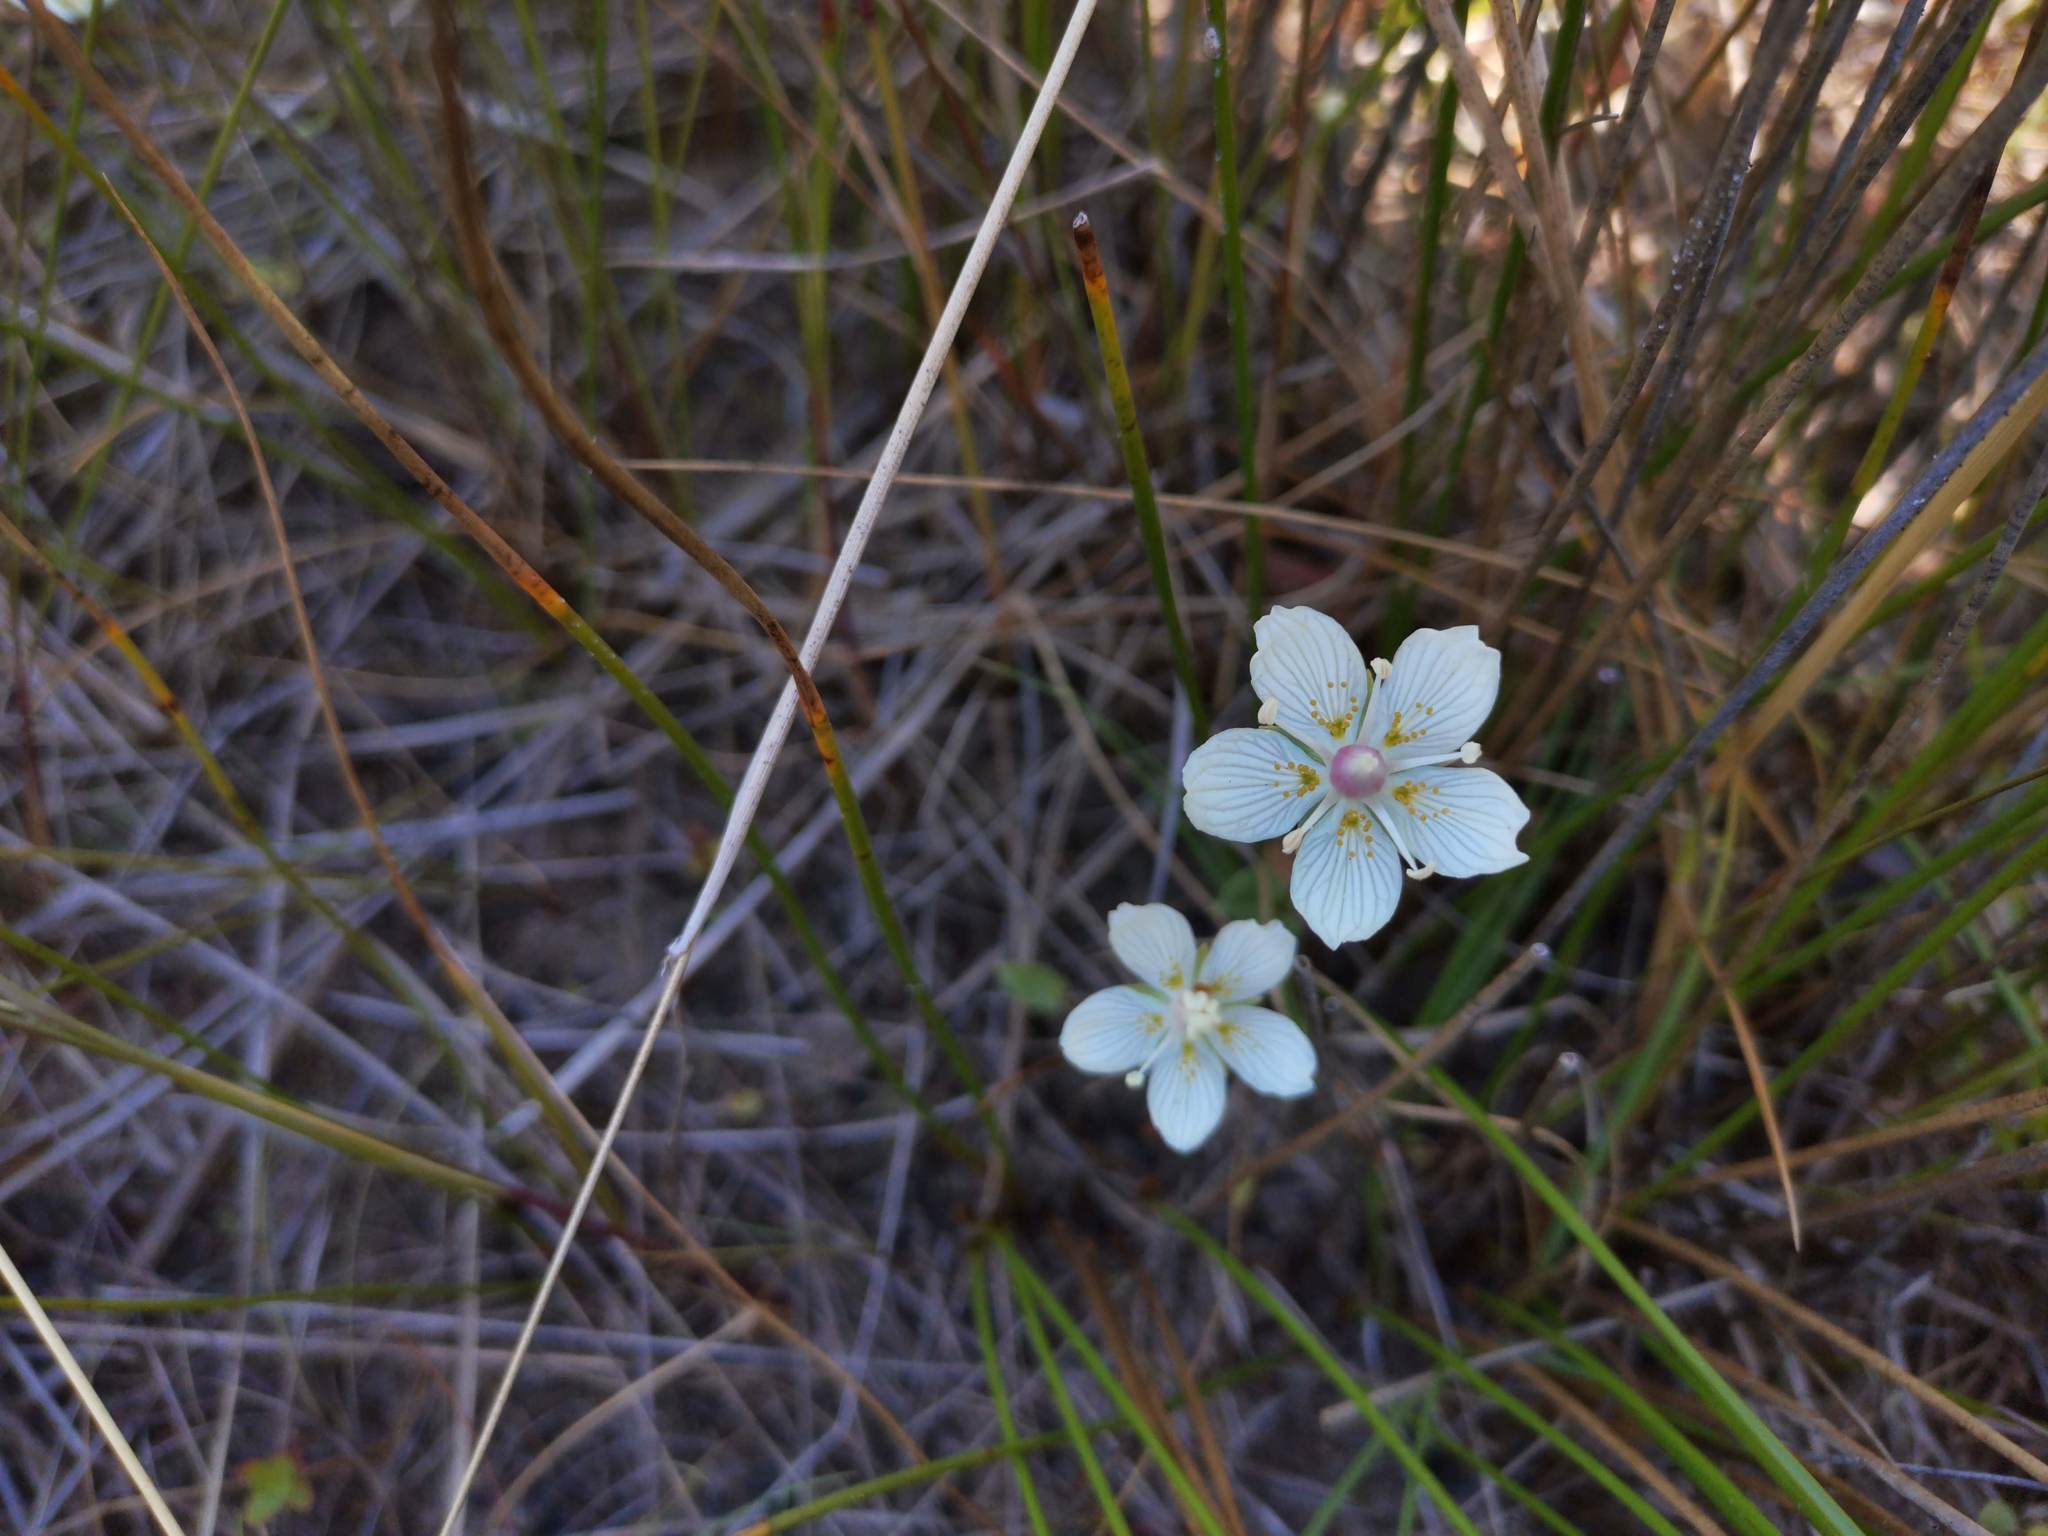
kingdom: Plantae
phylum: Tracheophyta
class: Magnoliopsida
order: Celastrales
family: Parnassiaceae
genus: Parnassia
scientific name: Parnassia palustris
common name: Grass-of-parnassus
